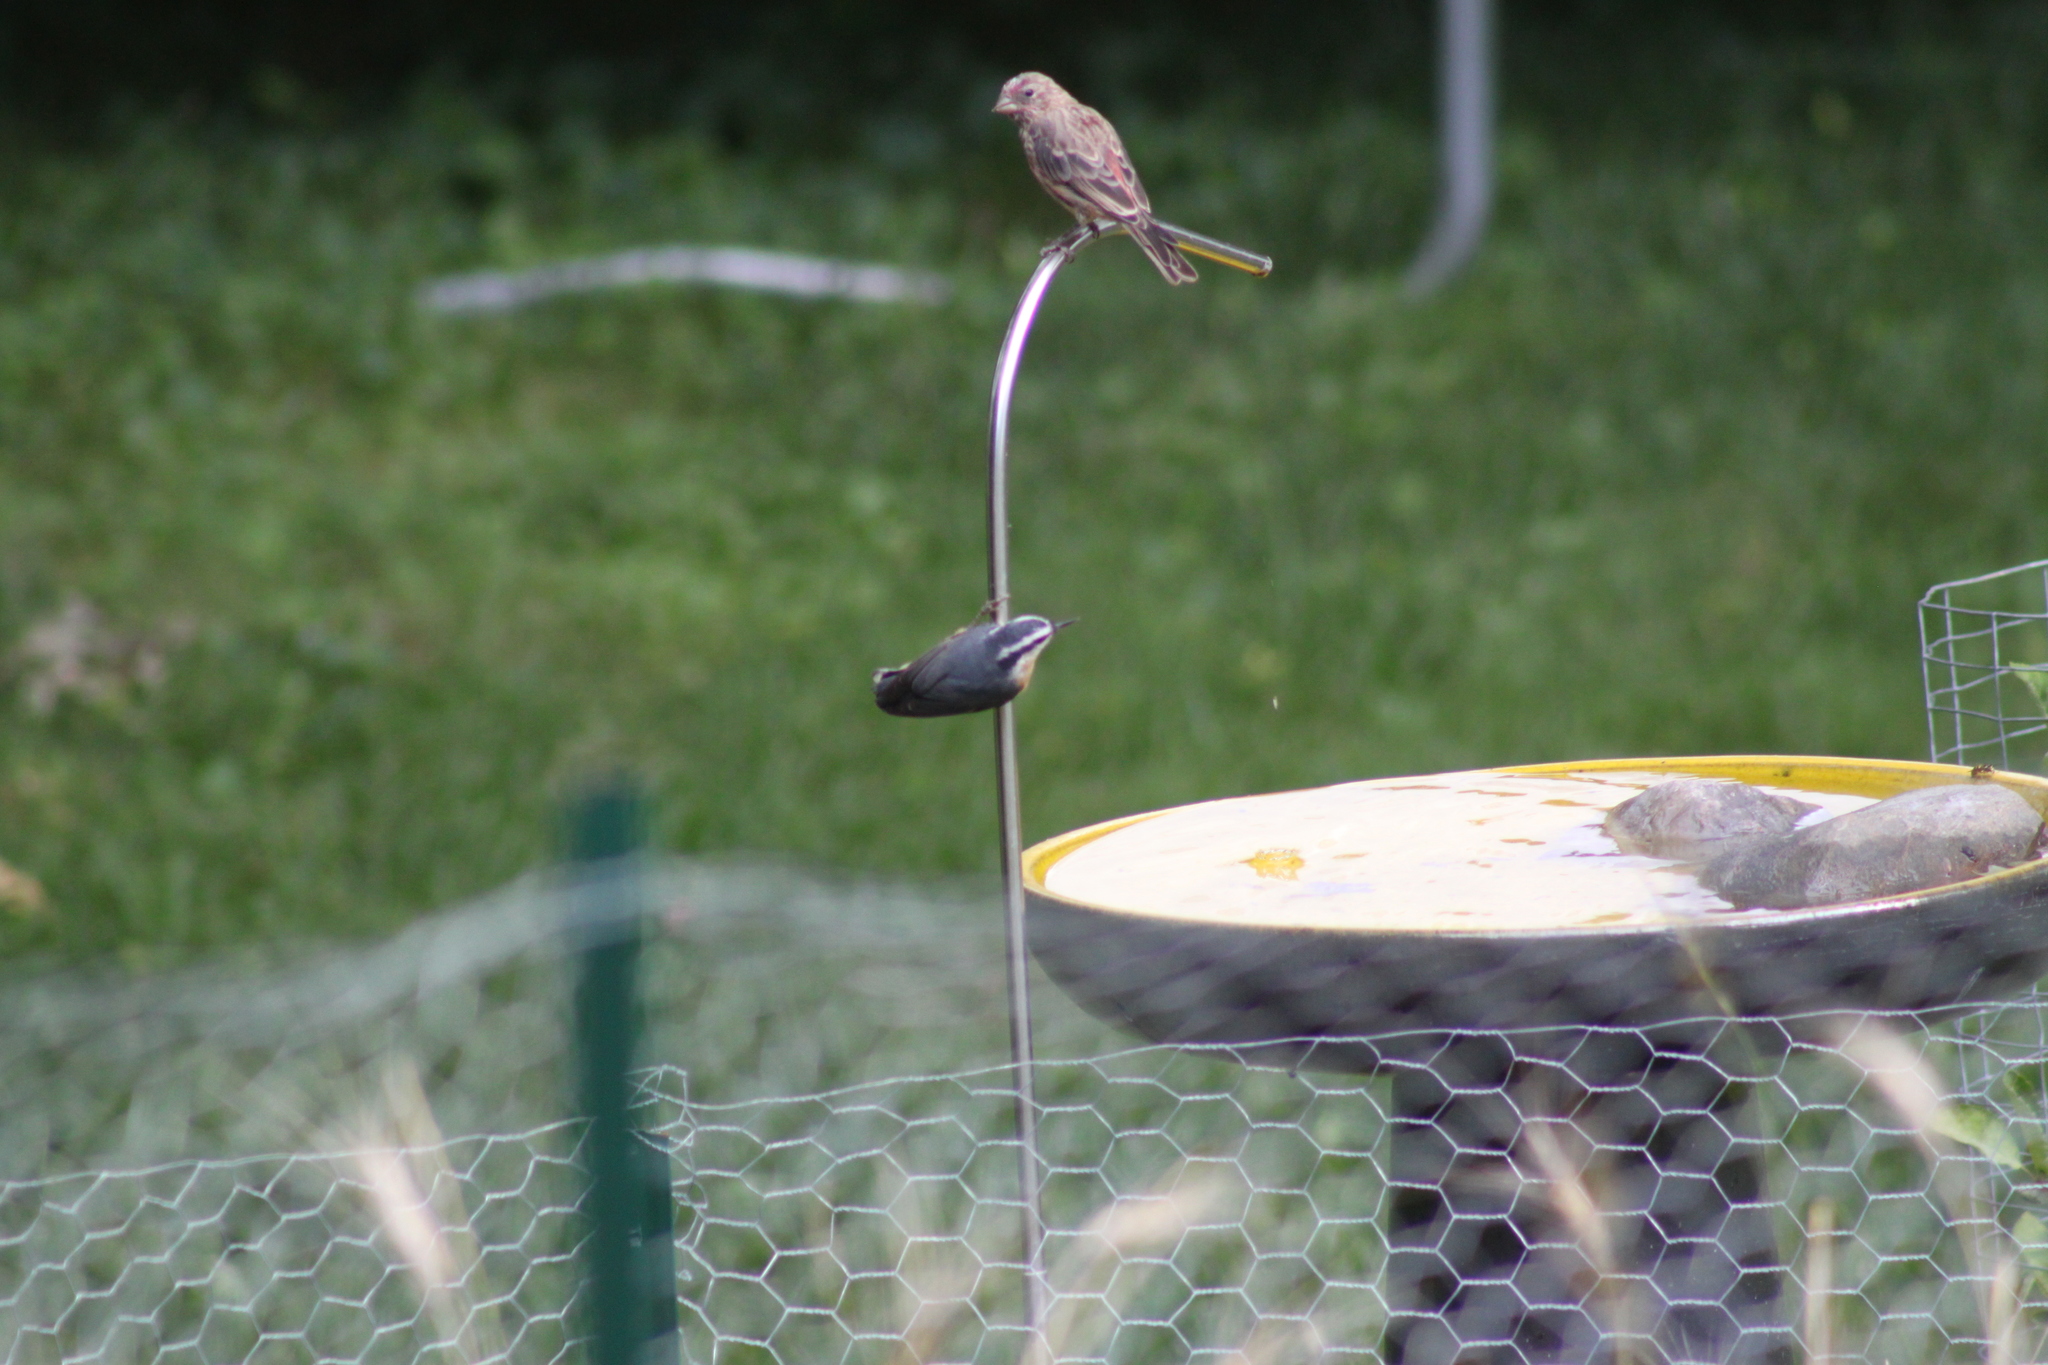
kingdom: Animalia
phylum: Chordata
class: Aves
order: Passeriformes
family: Fringillidae
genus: Haemorhous
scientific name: Haemorhous mexicanus
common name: House finch
